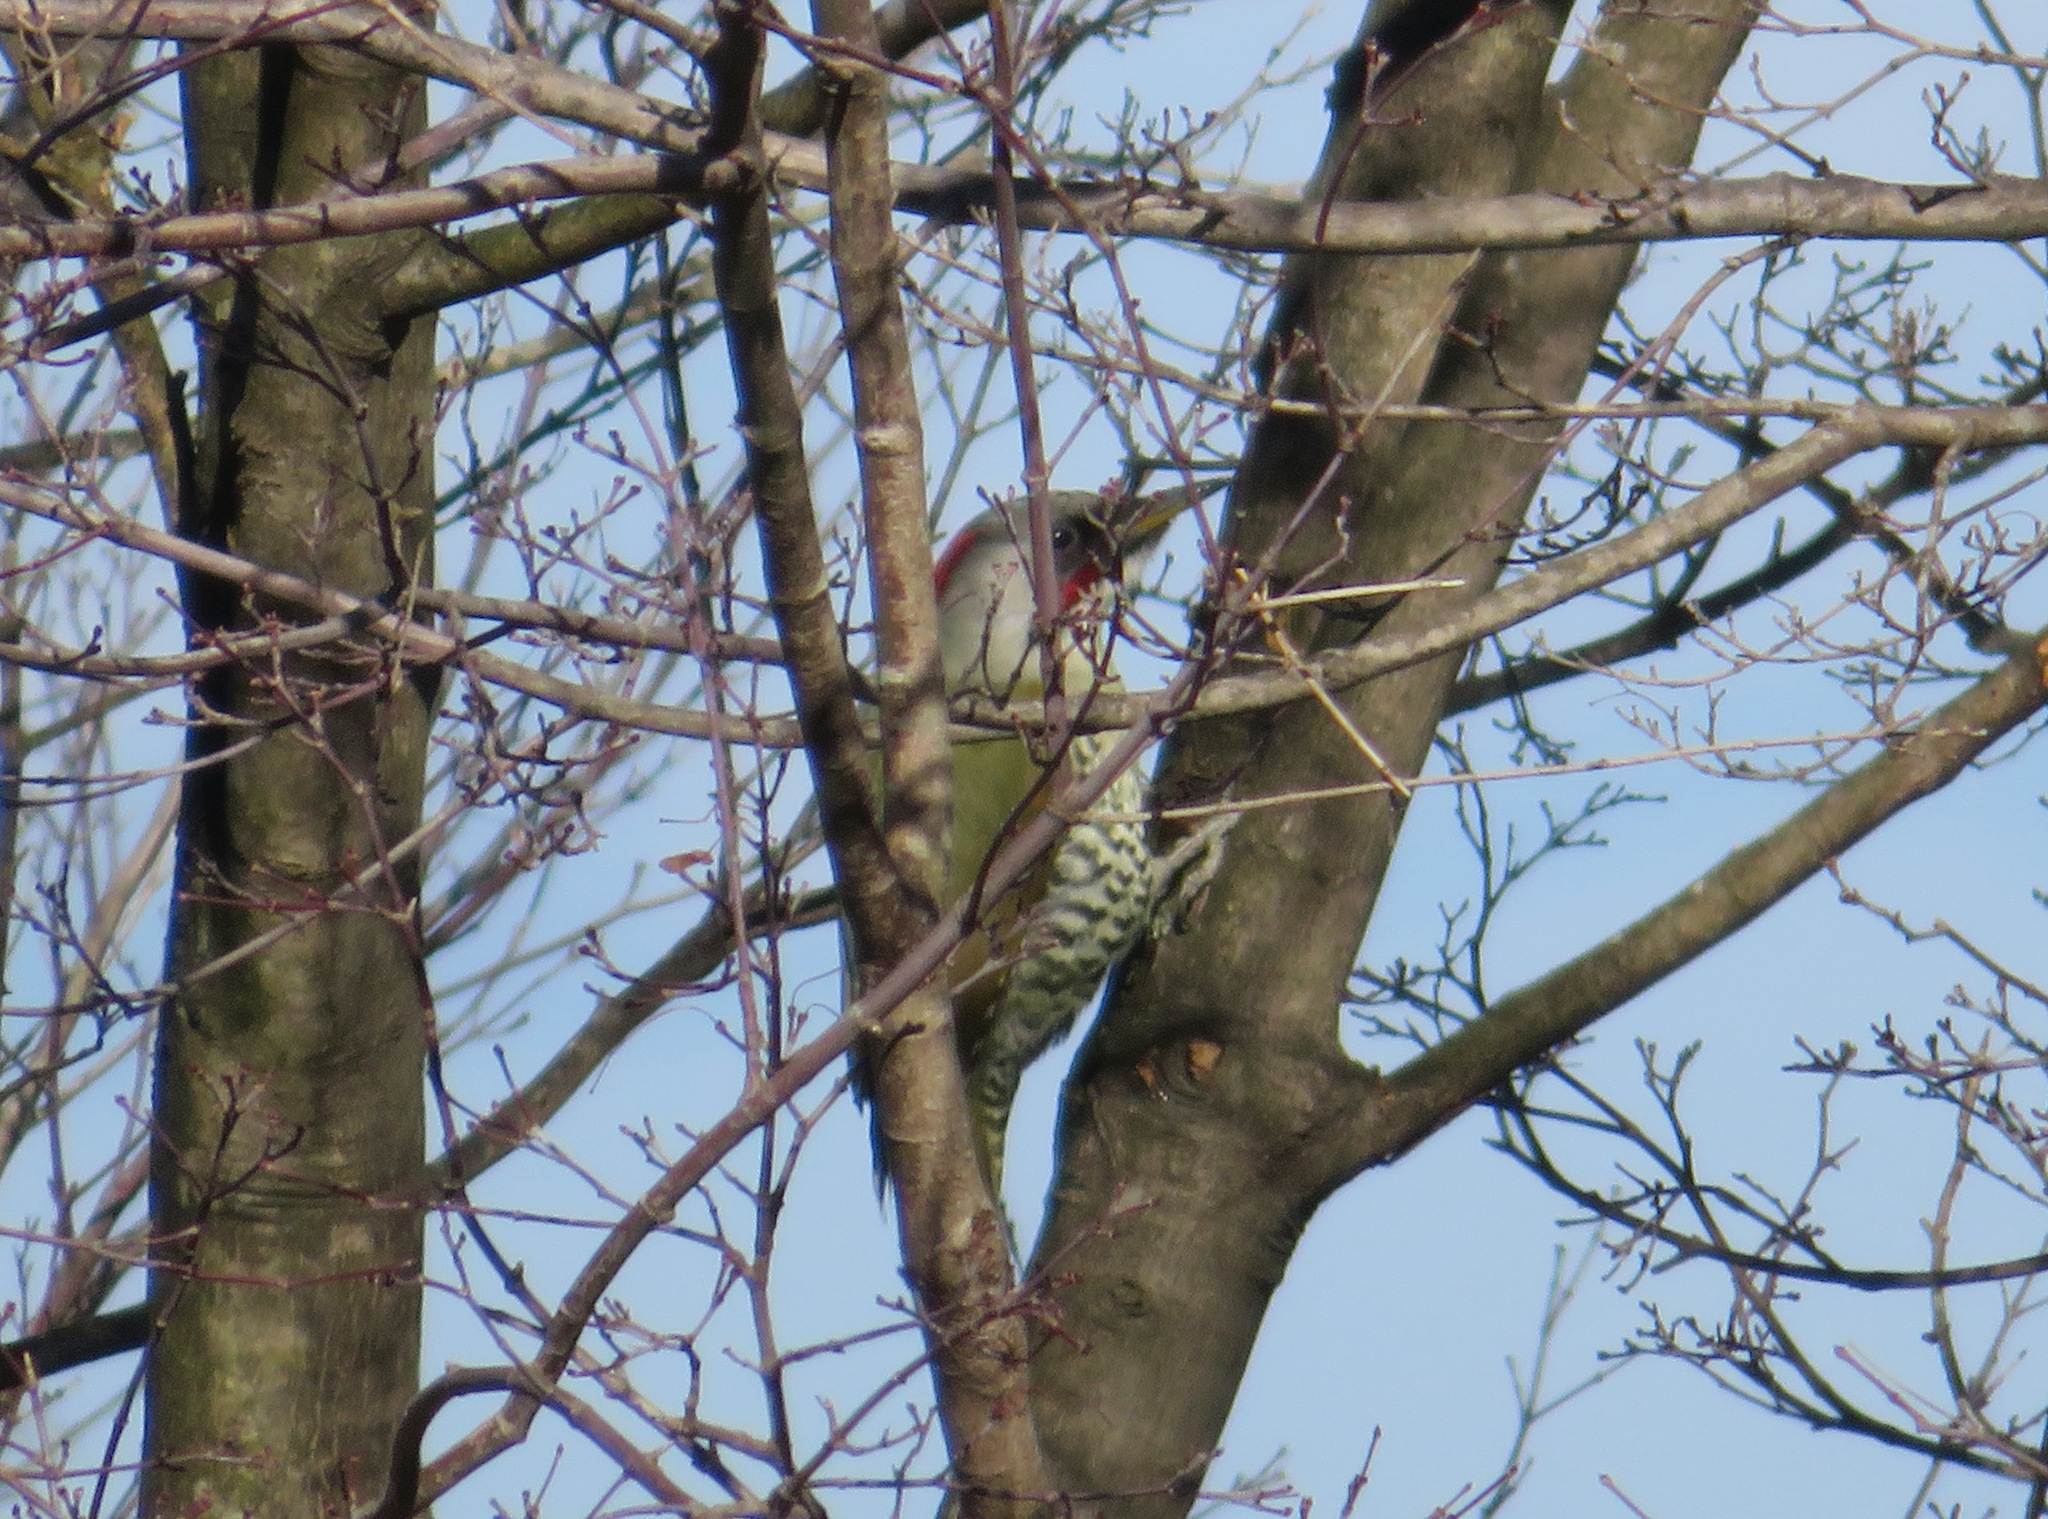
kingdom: Animalia
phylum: Chordata
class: Aves
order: Piciformes
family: Picidae
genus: Picus
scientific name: Picus awokera
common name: Japanese green woodpecker
